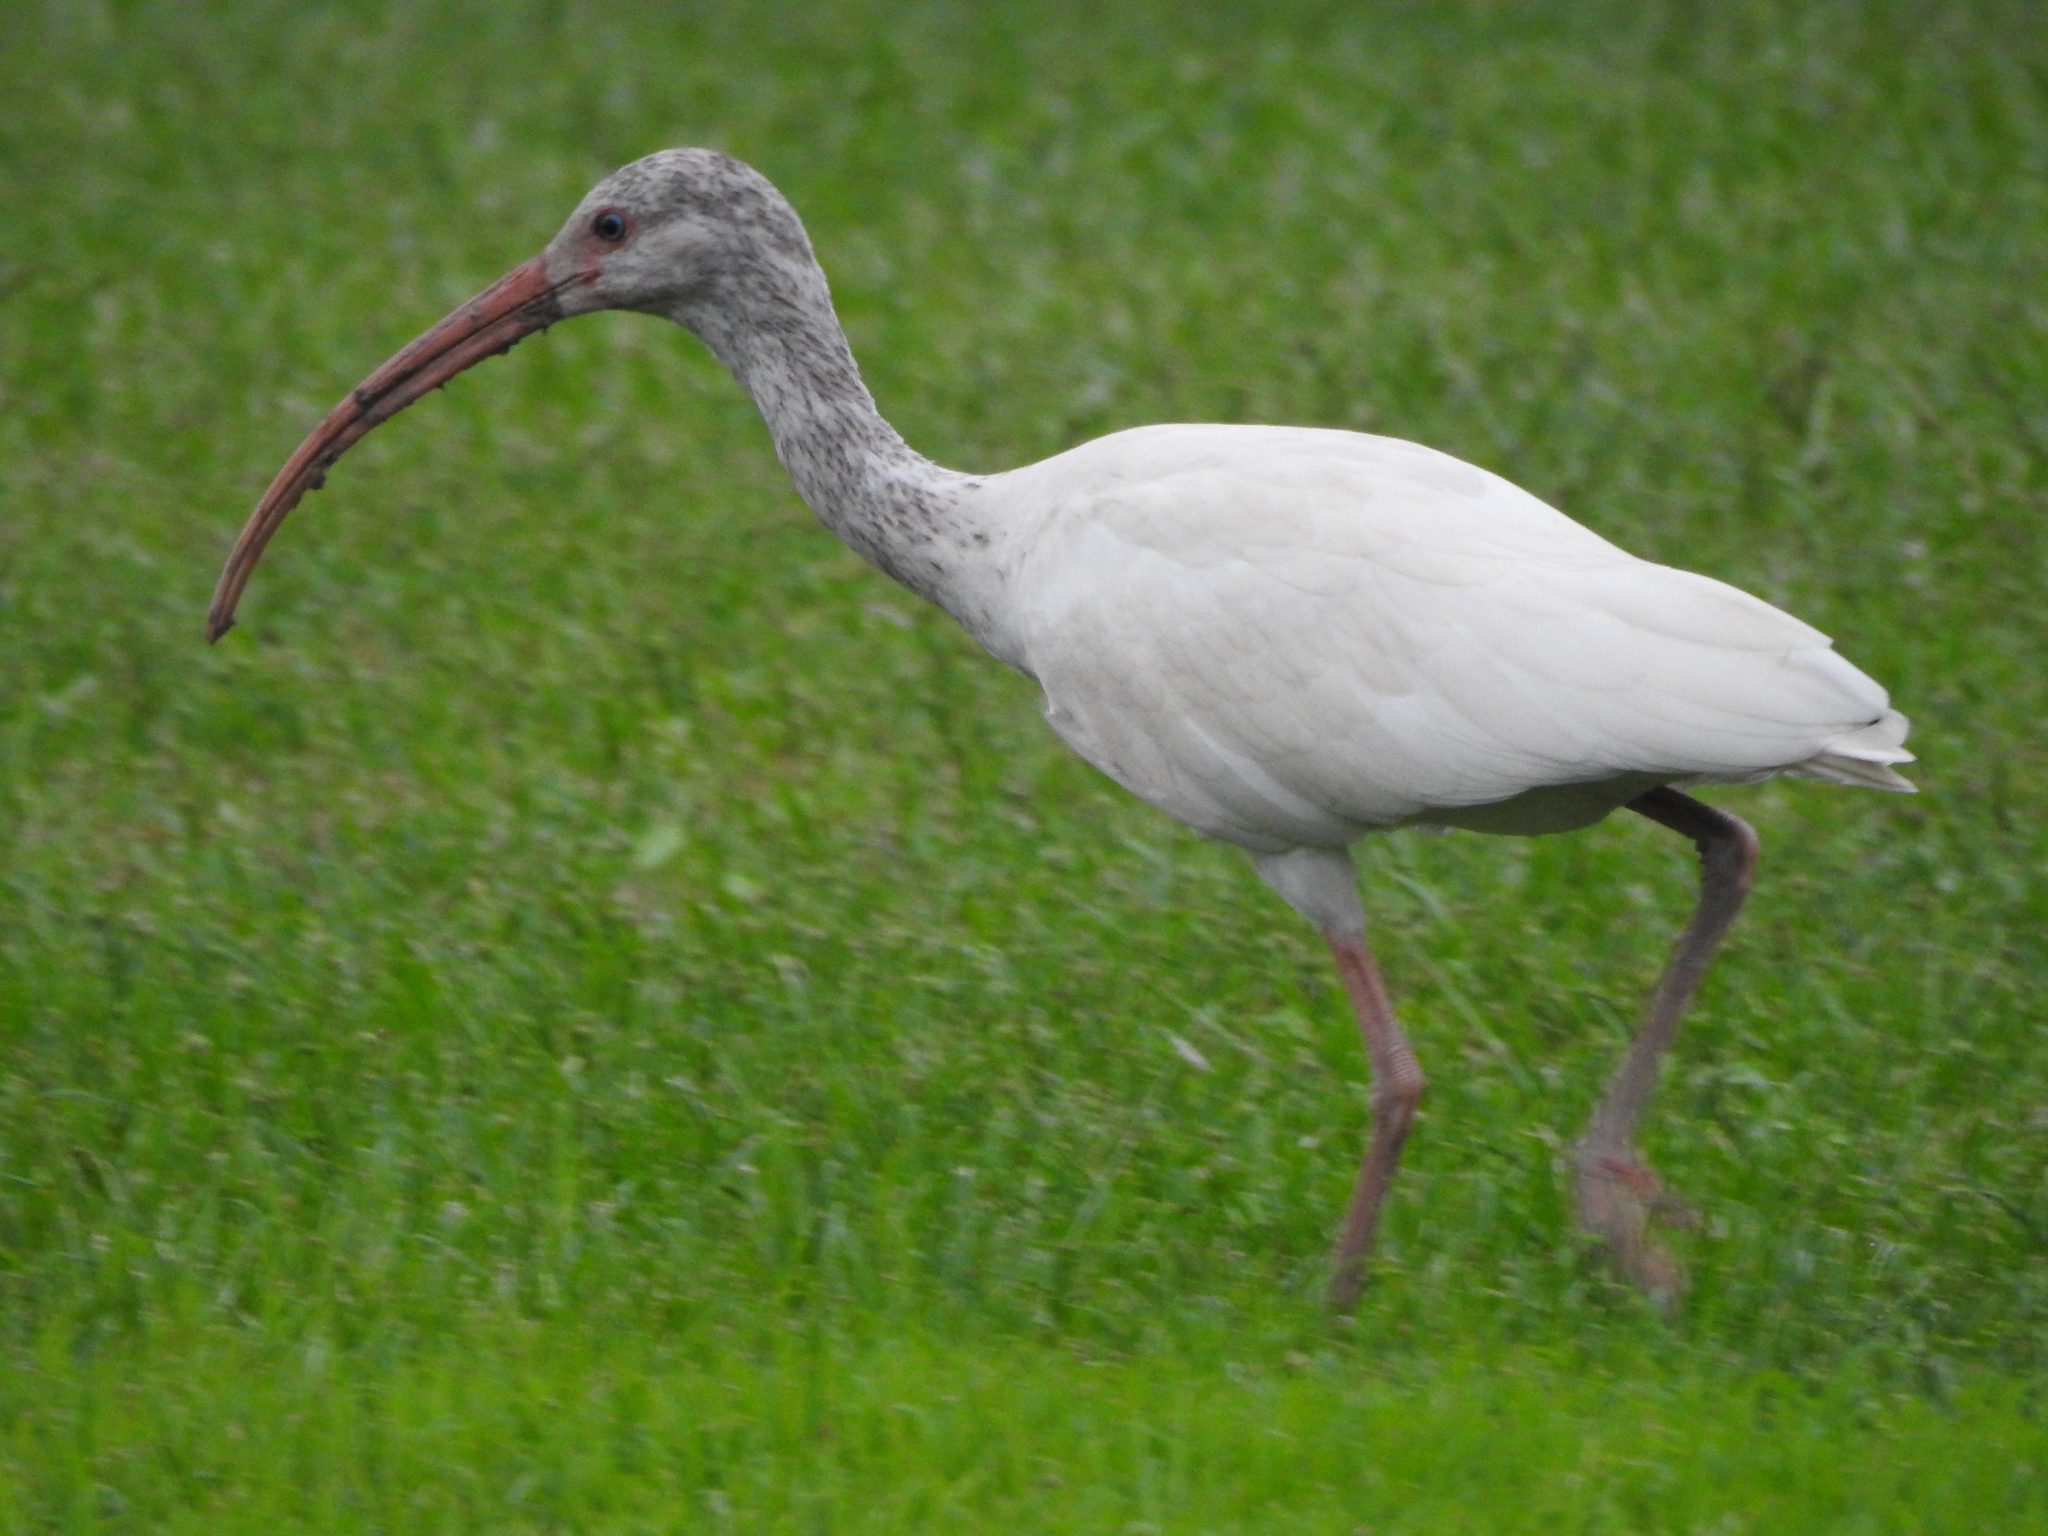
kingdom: Animalia
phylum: Chordata
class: Aves
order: Pelecaniformes
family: Threskiornithidae
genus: Eudocimus
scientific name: Eudocimus albus
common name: White ibis
